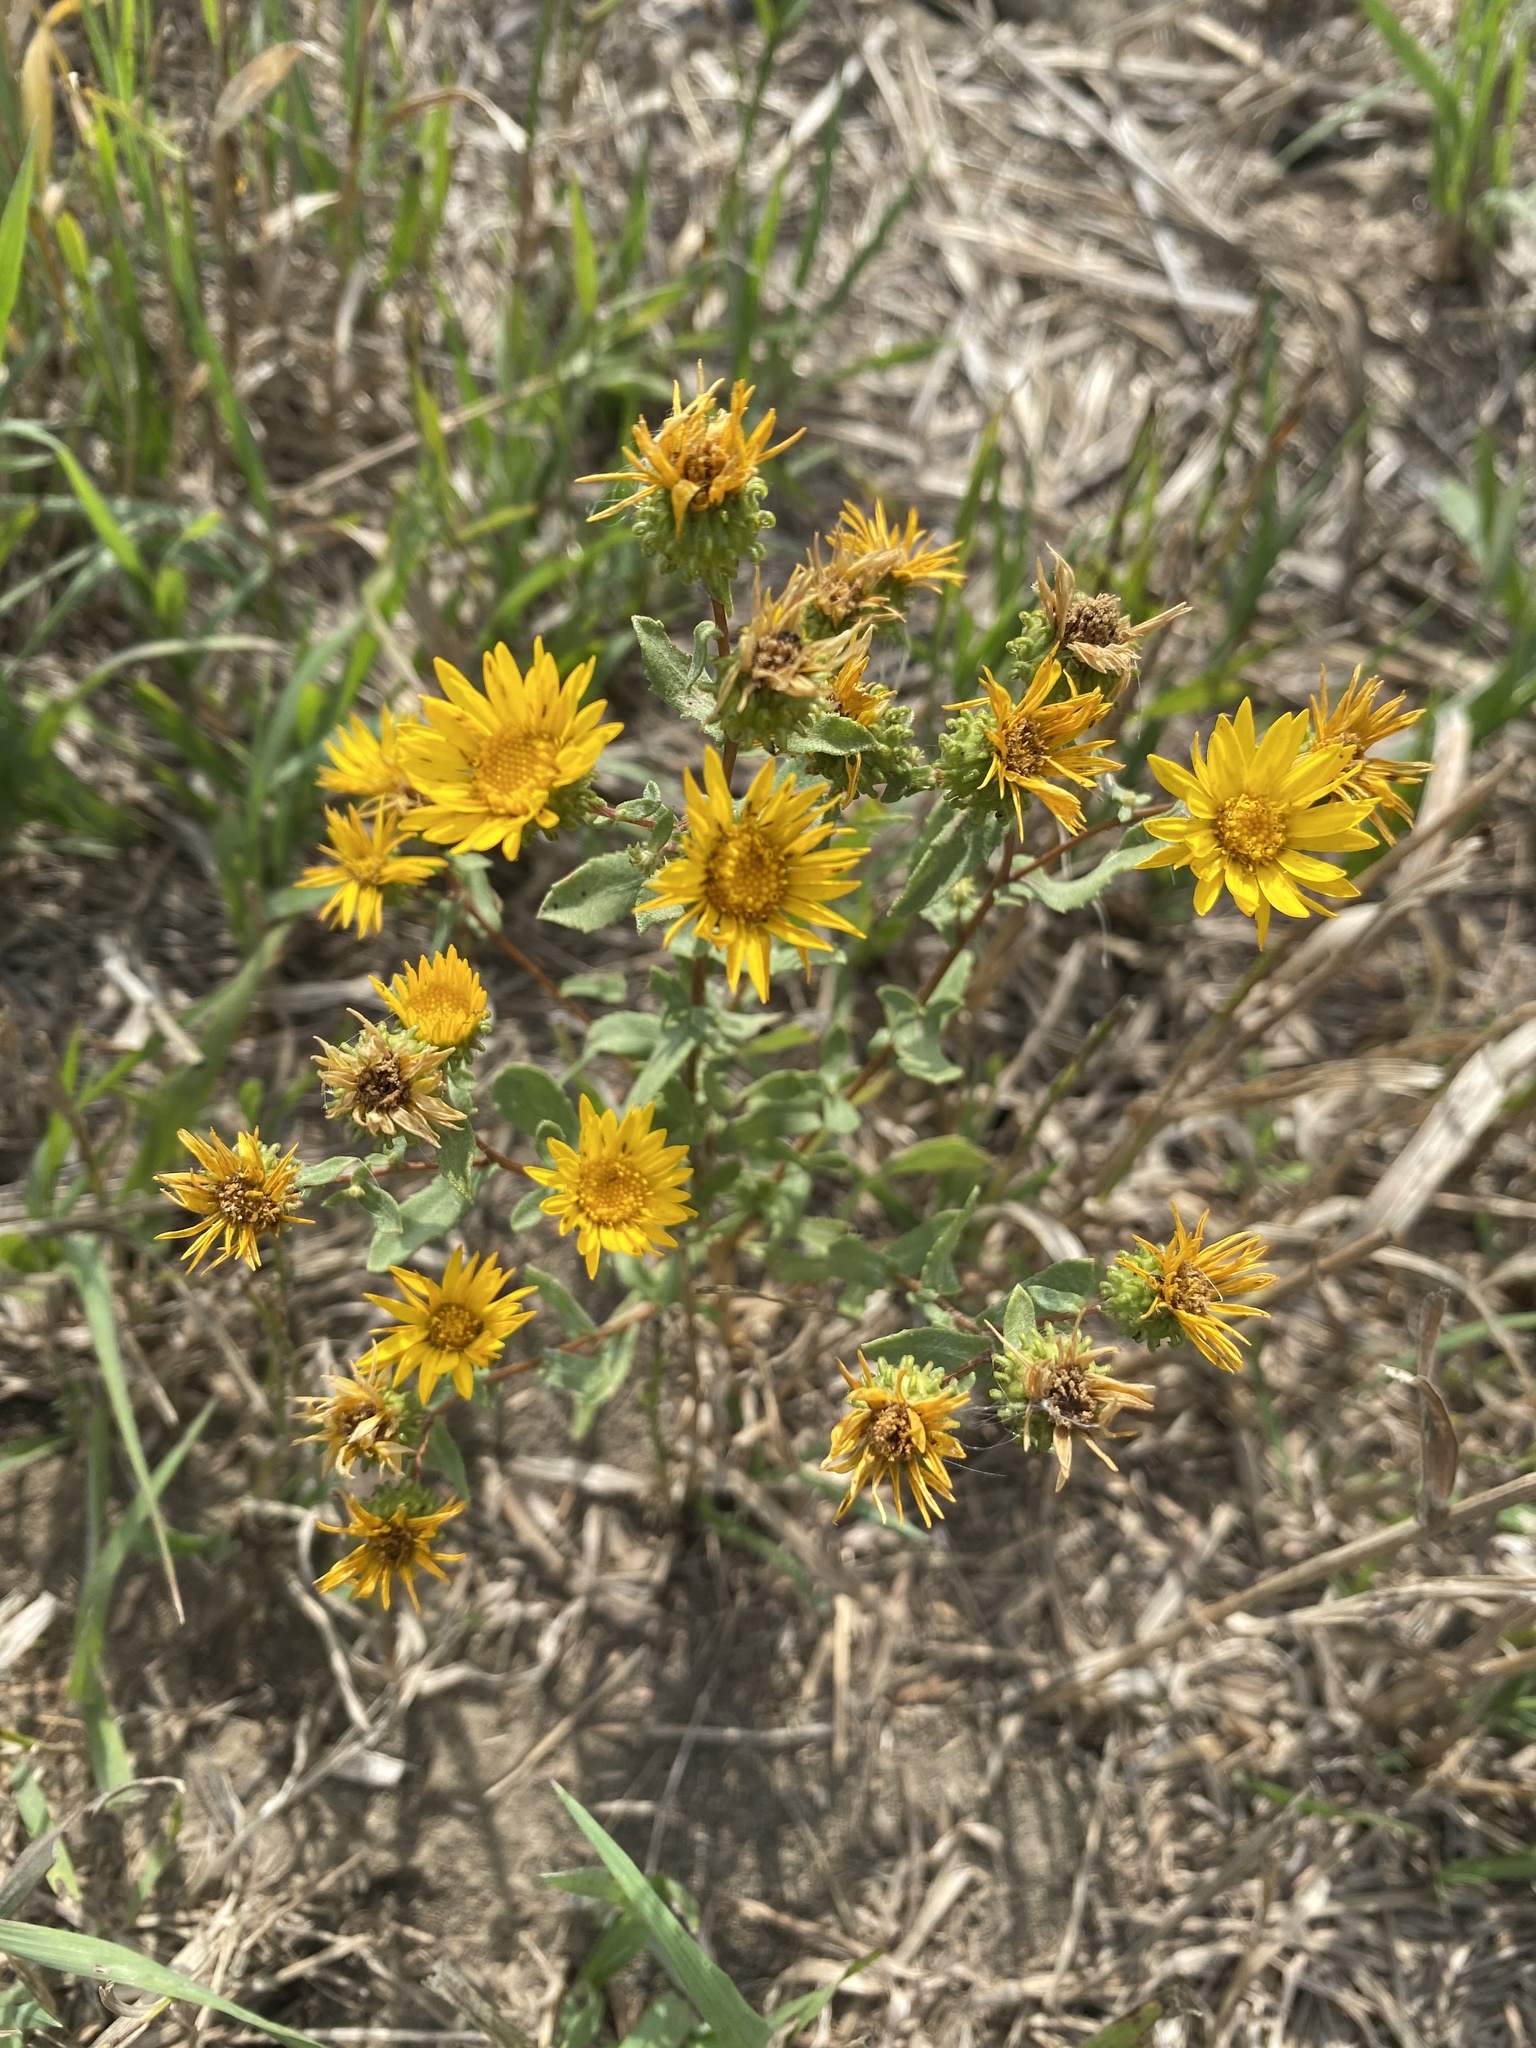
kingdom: Plantae
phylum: Tracheophyta
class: Magnoliopsida
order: Asterales
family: Asteraceae
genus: Grindelia
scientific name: Grindelia squarrosa
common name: Curly-cup gumweed
